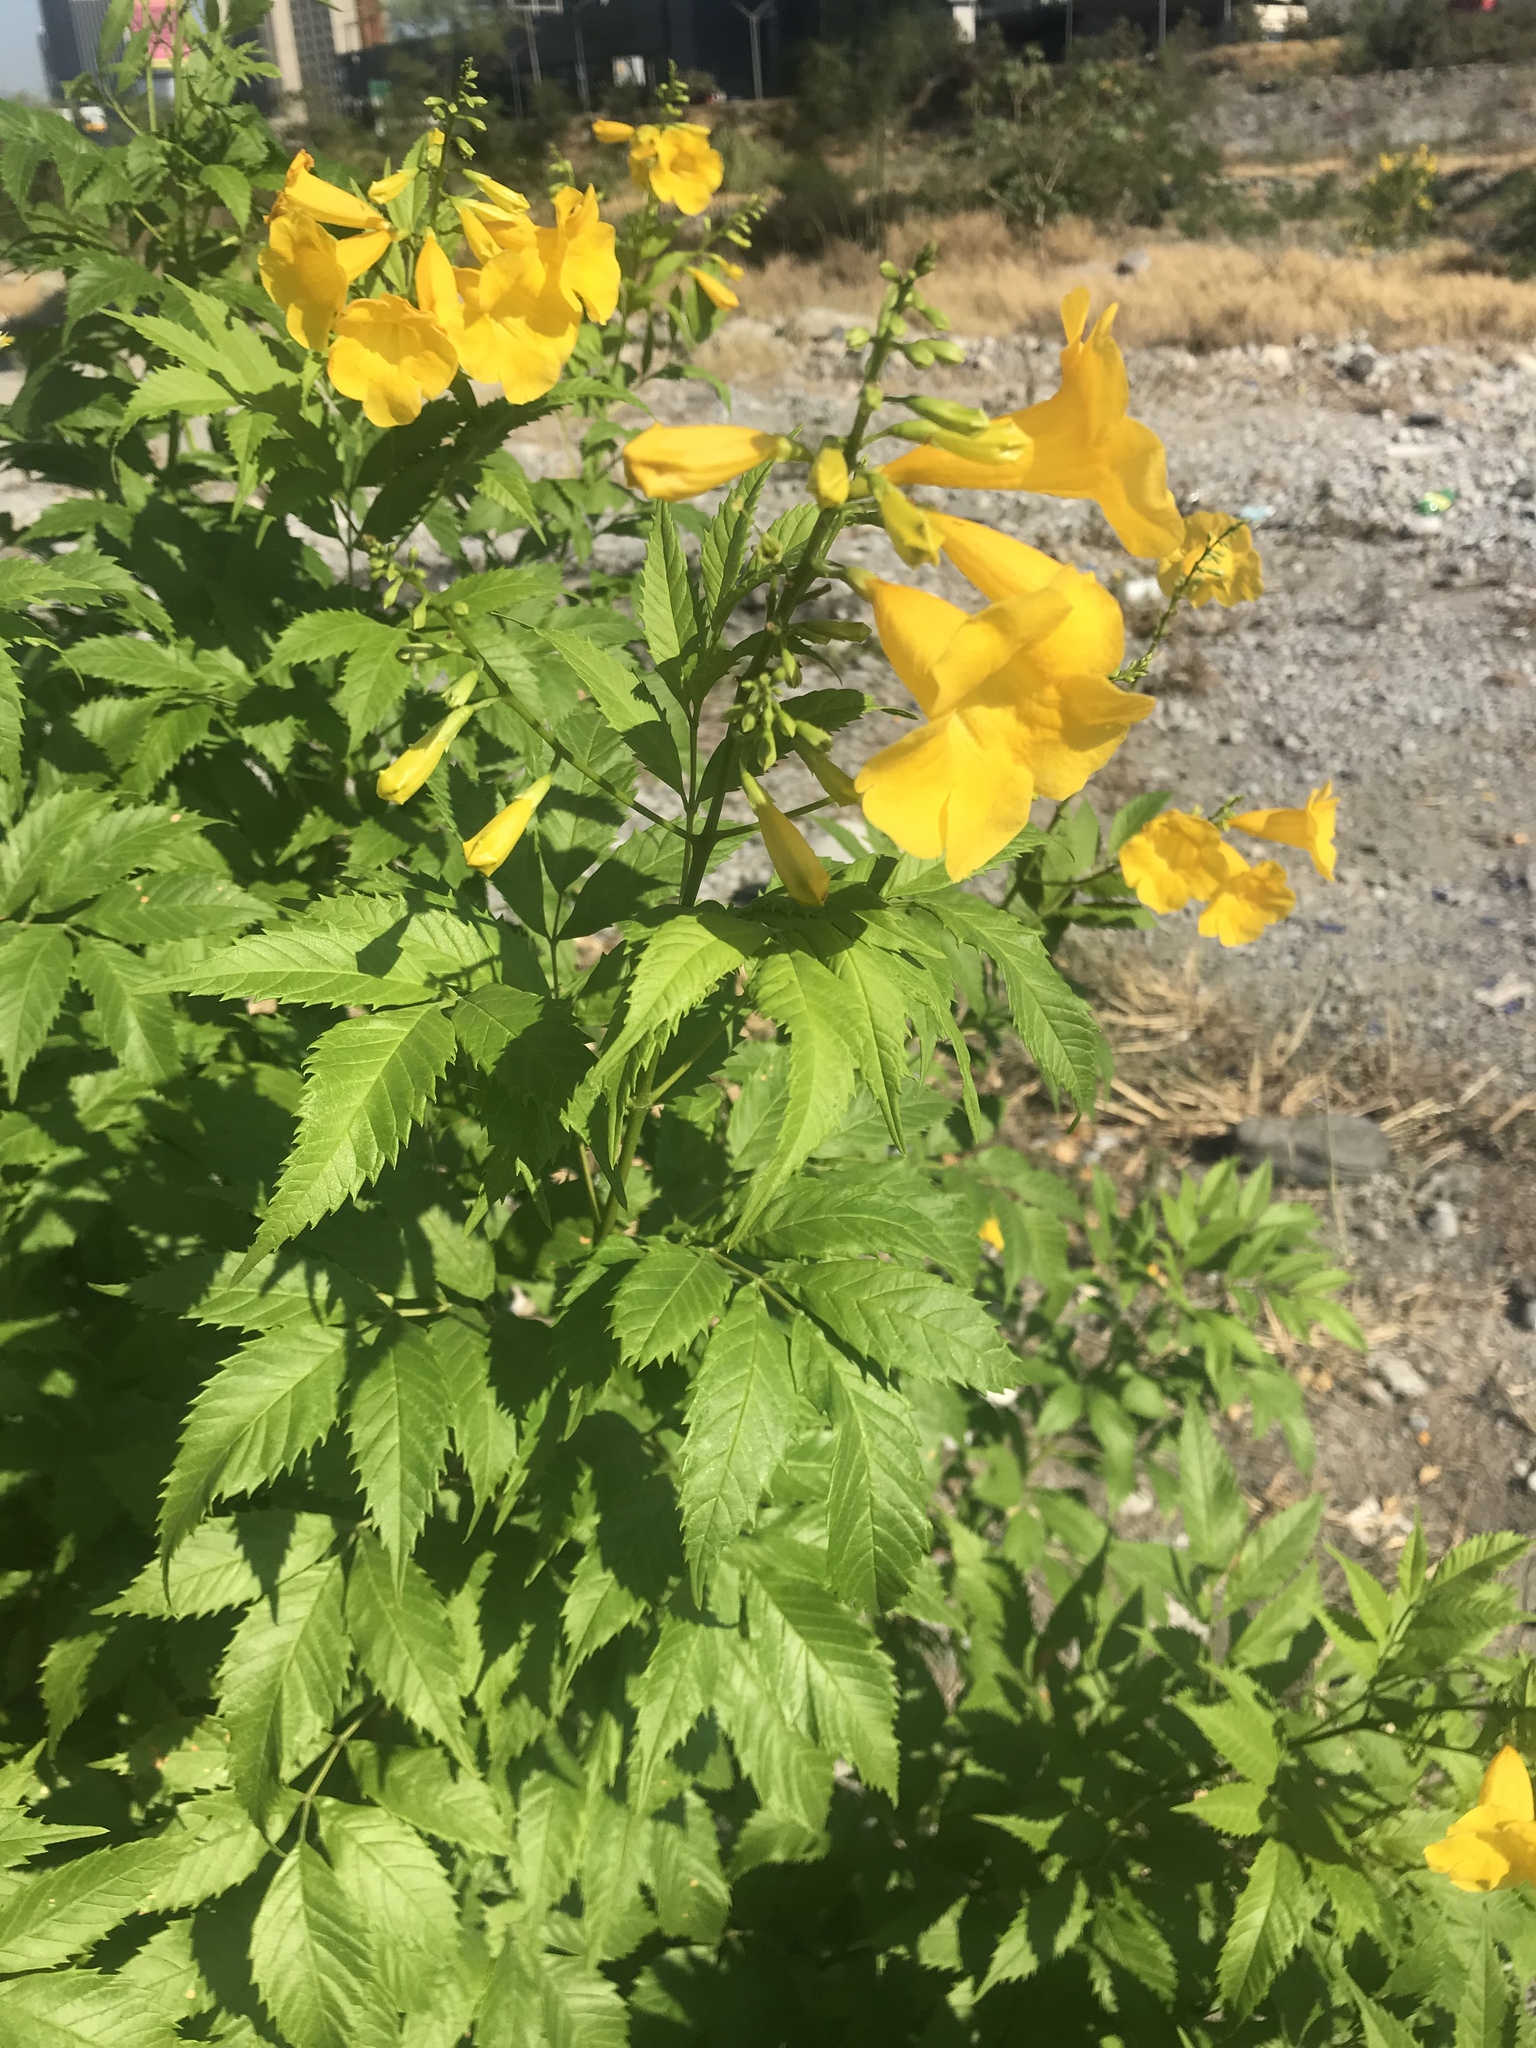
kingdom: Plantae
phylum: Tracheophyta
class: Magnoliopsida
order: Lamiales
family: Bignoniaceae
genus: Tecoma
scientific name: Tecoma stans
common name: Yellow trumpetbush
